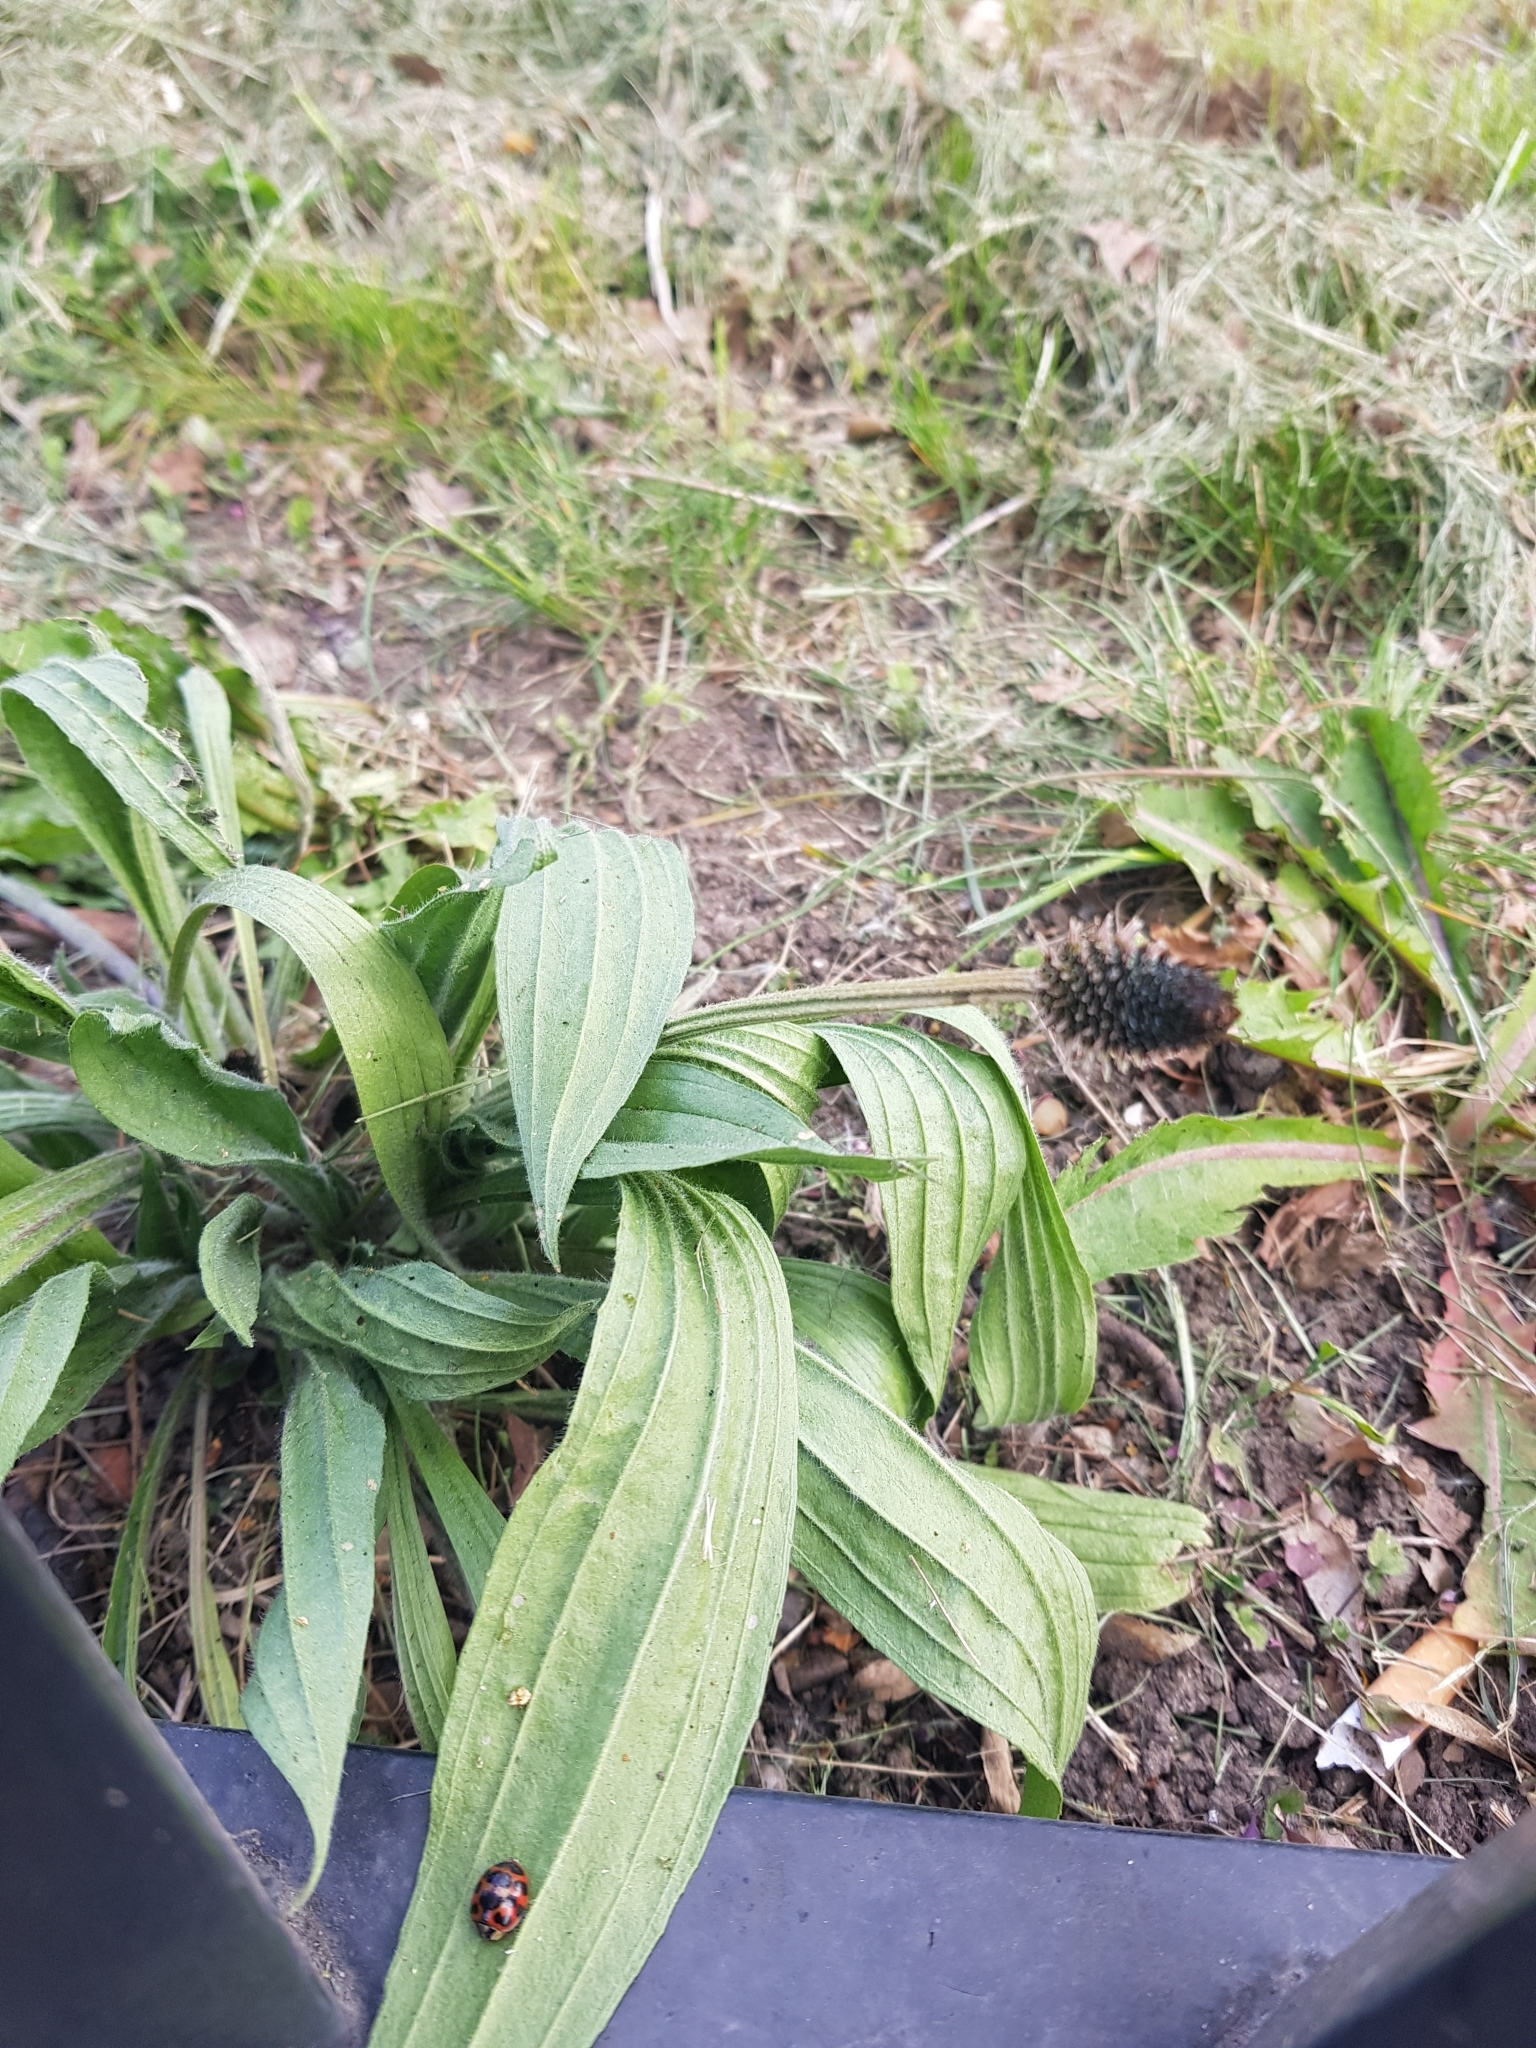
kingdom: Plantae
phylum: Tracheophyta
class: Magnoliopsida
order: Lamiales
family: Plantaginaceae
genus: Plantago
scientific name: Plantago lanceolata
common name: Ribwort plantain
